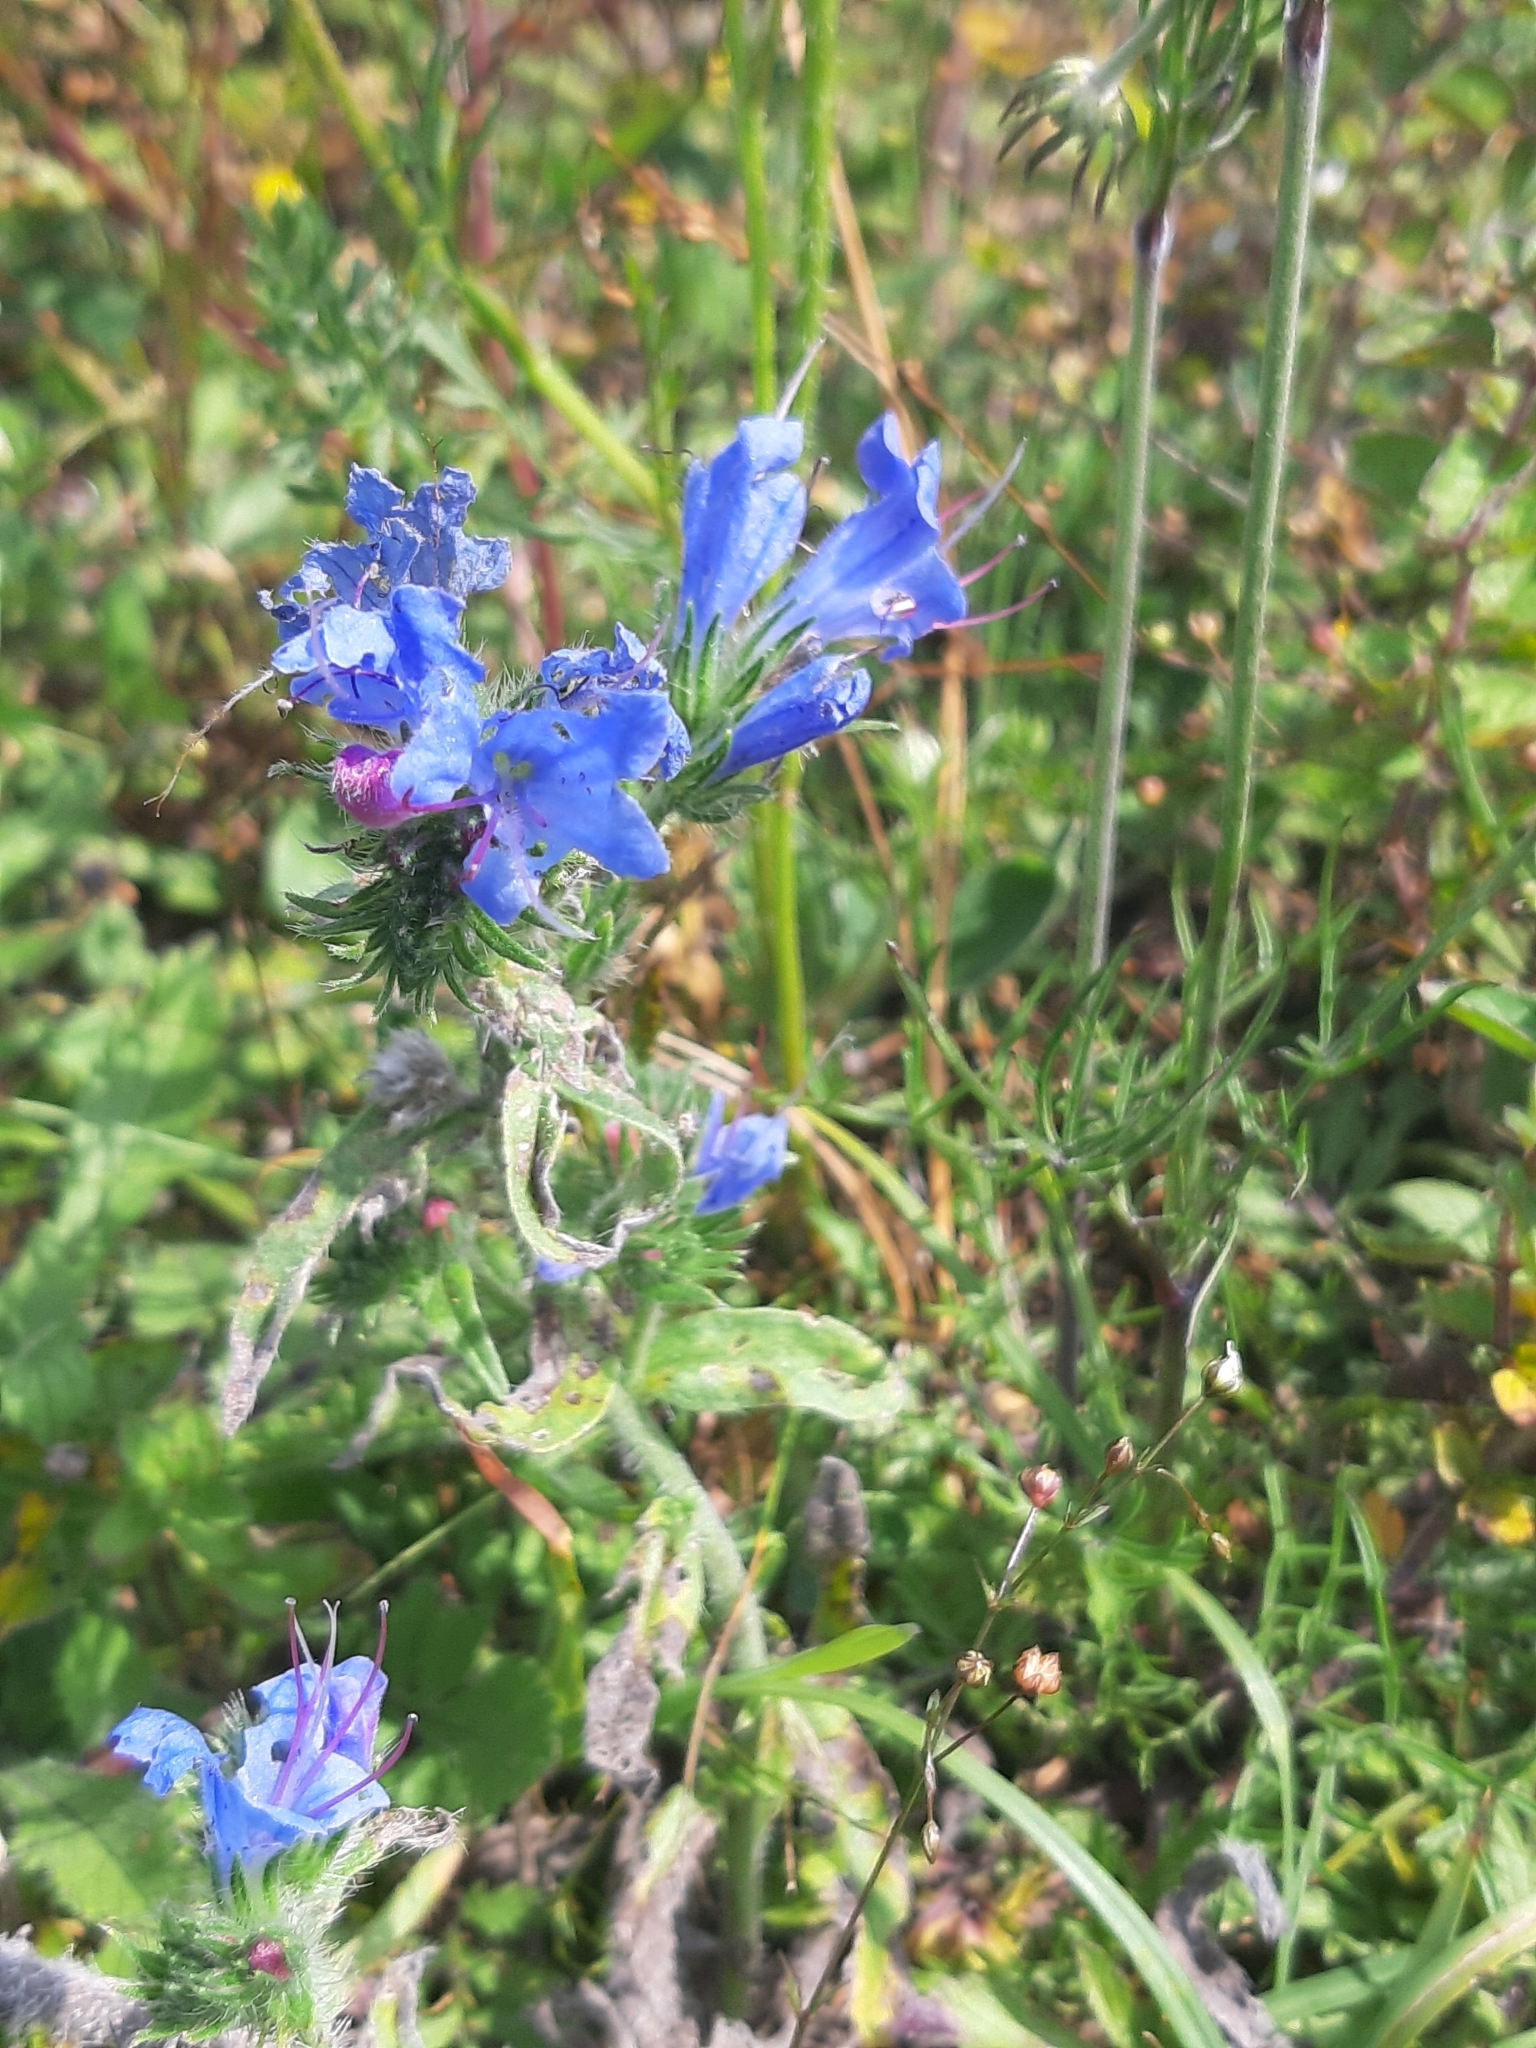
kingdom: Plantae
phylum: Tracheophyta
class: Magnoliopsida
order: Boraginales
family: Boraginaceae
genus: Echium
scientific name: Echium vulgare
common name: Common viper's bugloss
